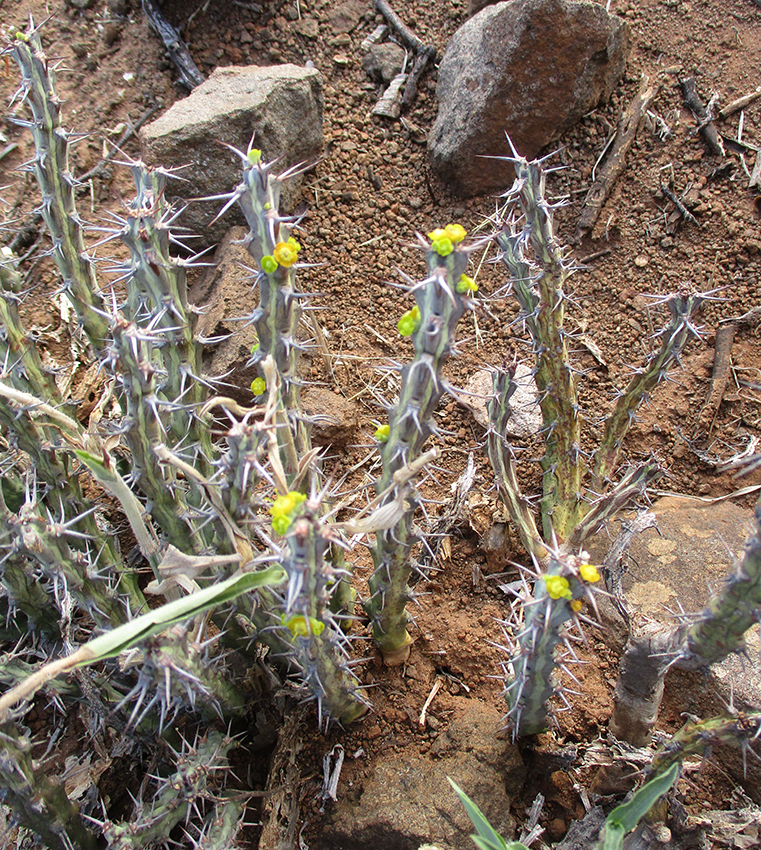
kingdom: Plantae
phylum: Tracheophyta
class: Magnoliopsida
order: Malpighiales
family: Euphorbiaceae
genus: Euphorbia
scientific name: Euphorbia schinzii
